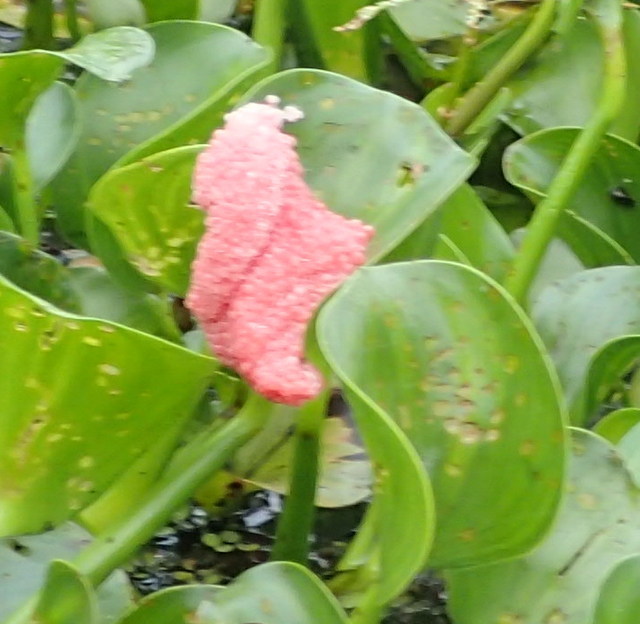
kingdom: Animalia
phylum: Mollusca
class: Gastropoda
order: Architaenioglossa
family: Ampullariidae
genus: Pomacea
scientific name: Pomacea maculata
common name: Giant applesnail
